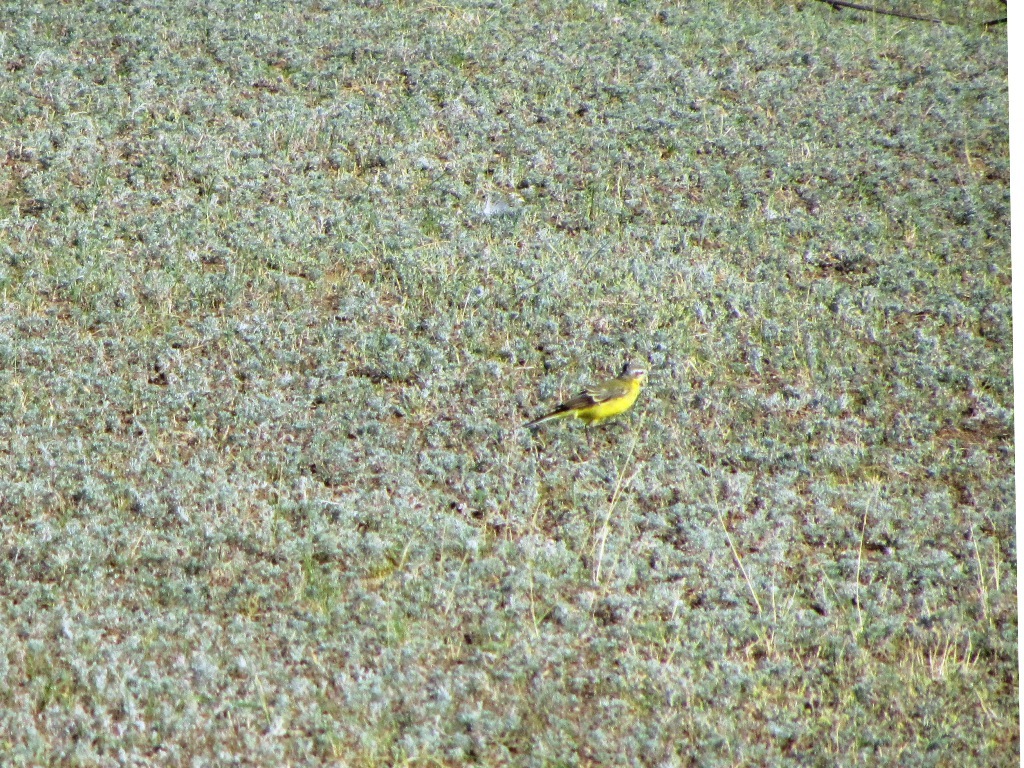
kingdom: Animalia
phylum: Chordata
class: Aves
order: Passeriformes
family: Motacillidae
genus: Motacilla
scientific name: Motacilla flava
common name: Western yellow wagtail
